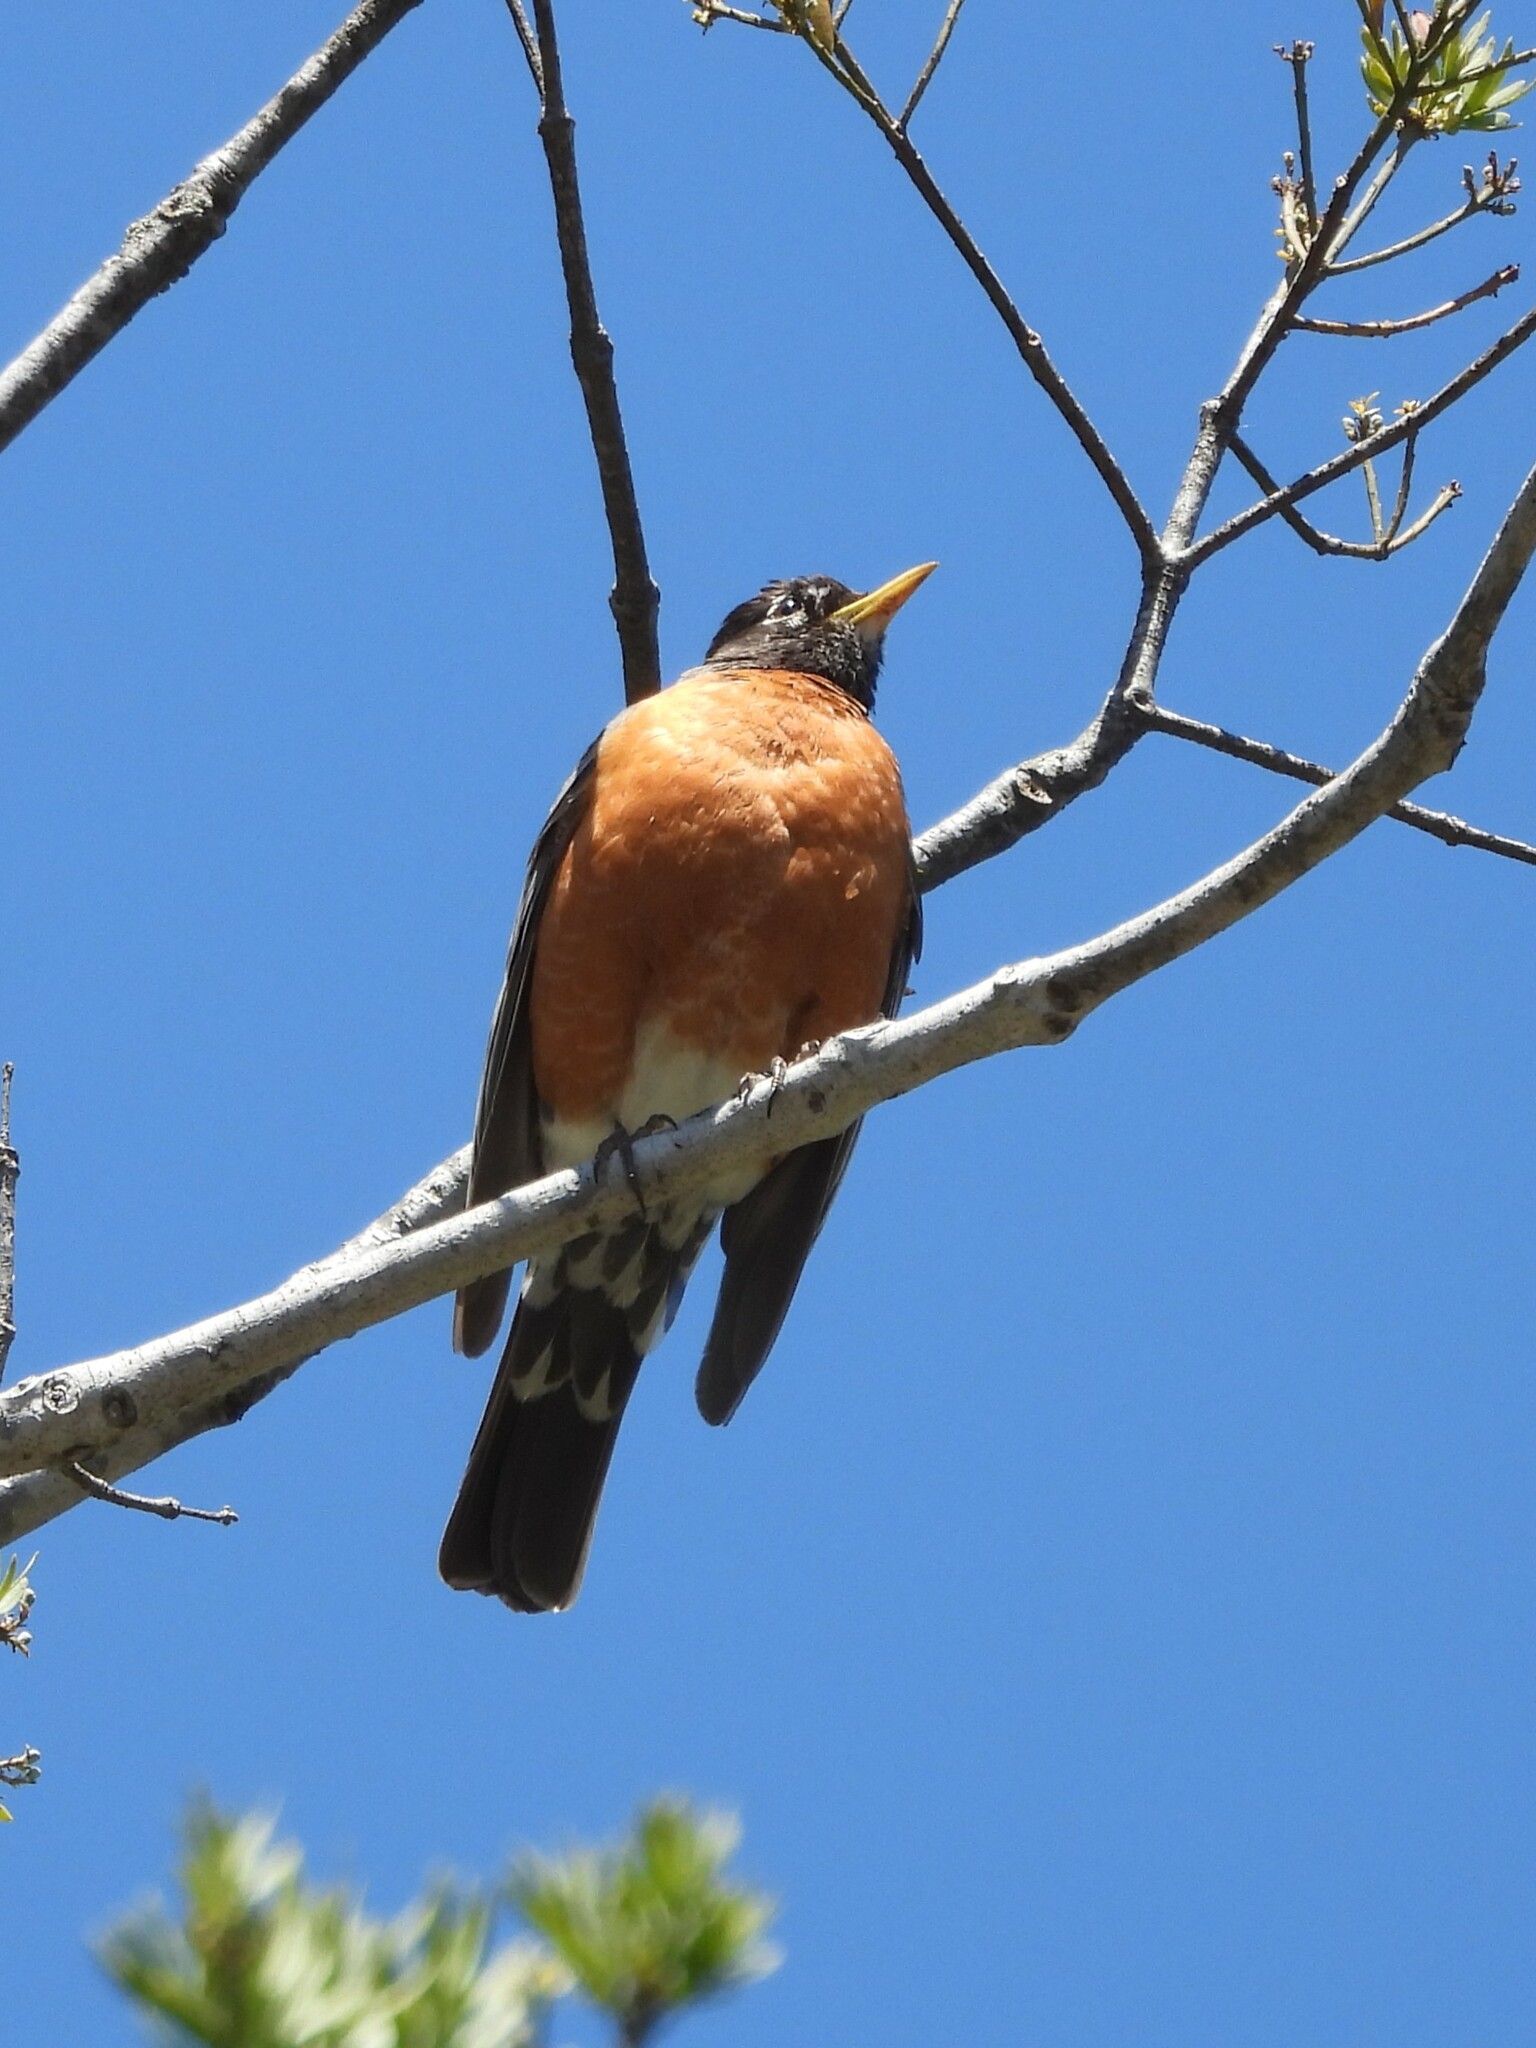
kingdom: Animalia
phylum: Chordata
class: Aves
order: Passeriformes
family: Turdidae
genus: Turdus
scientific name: Turdus migratorius
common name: American robin
